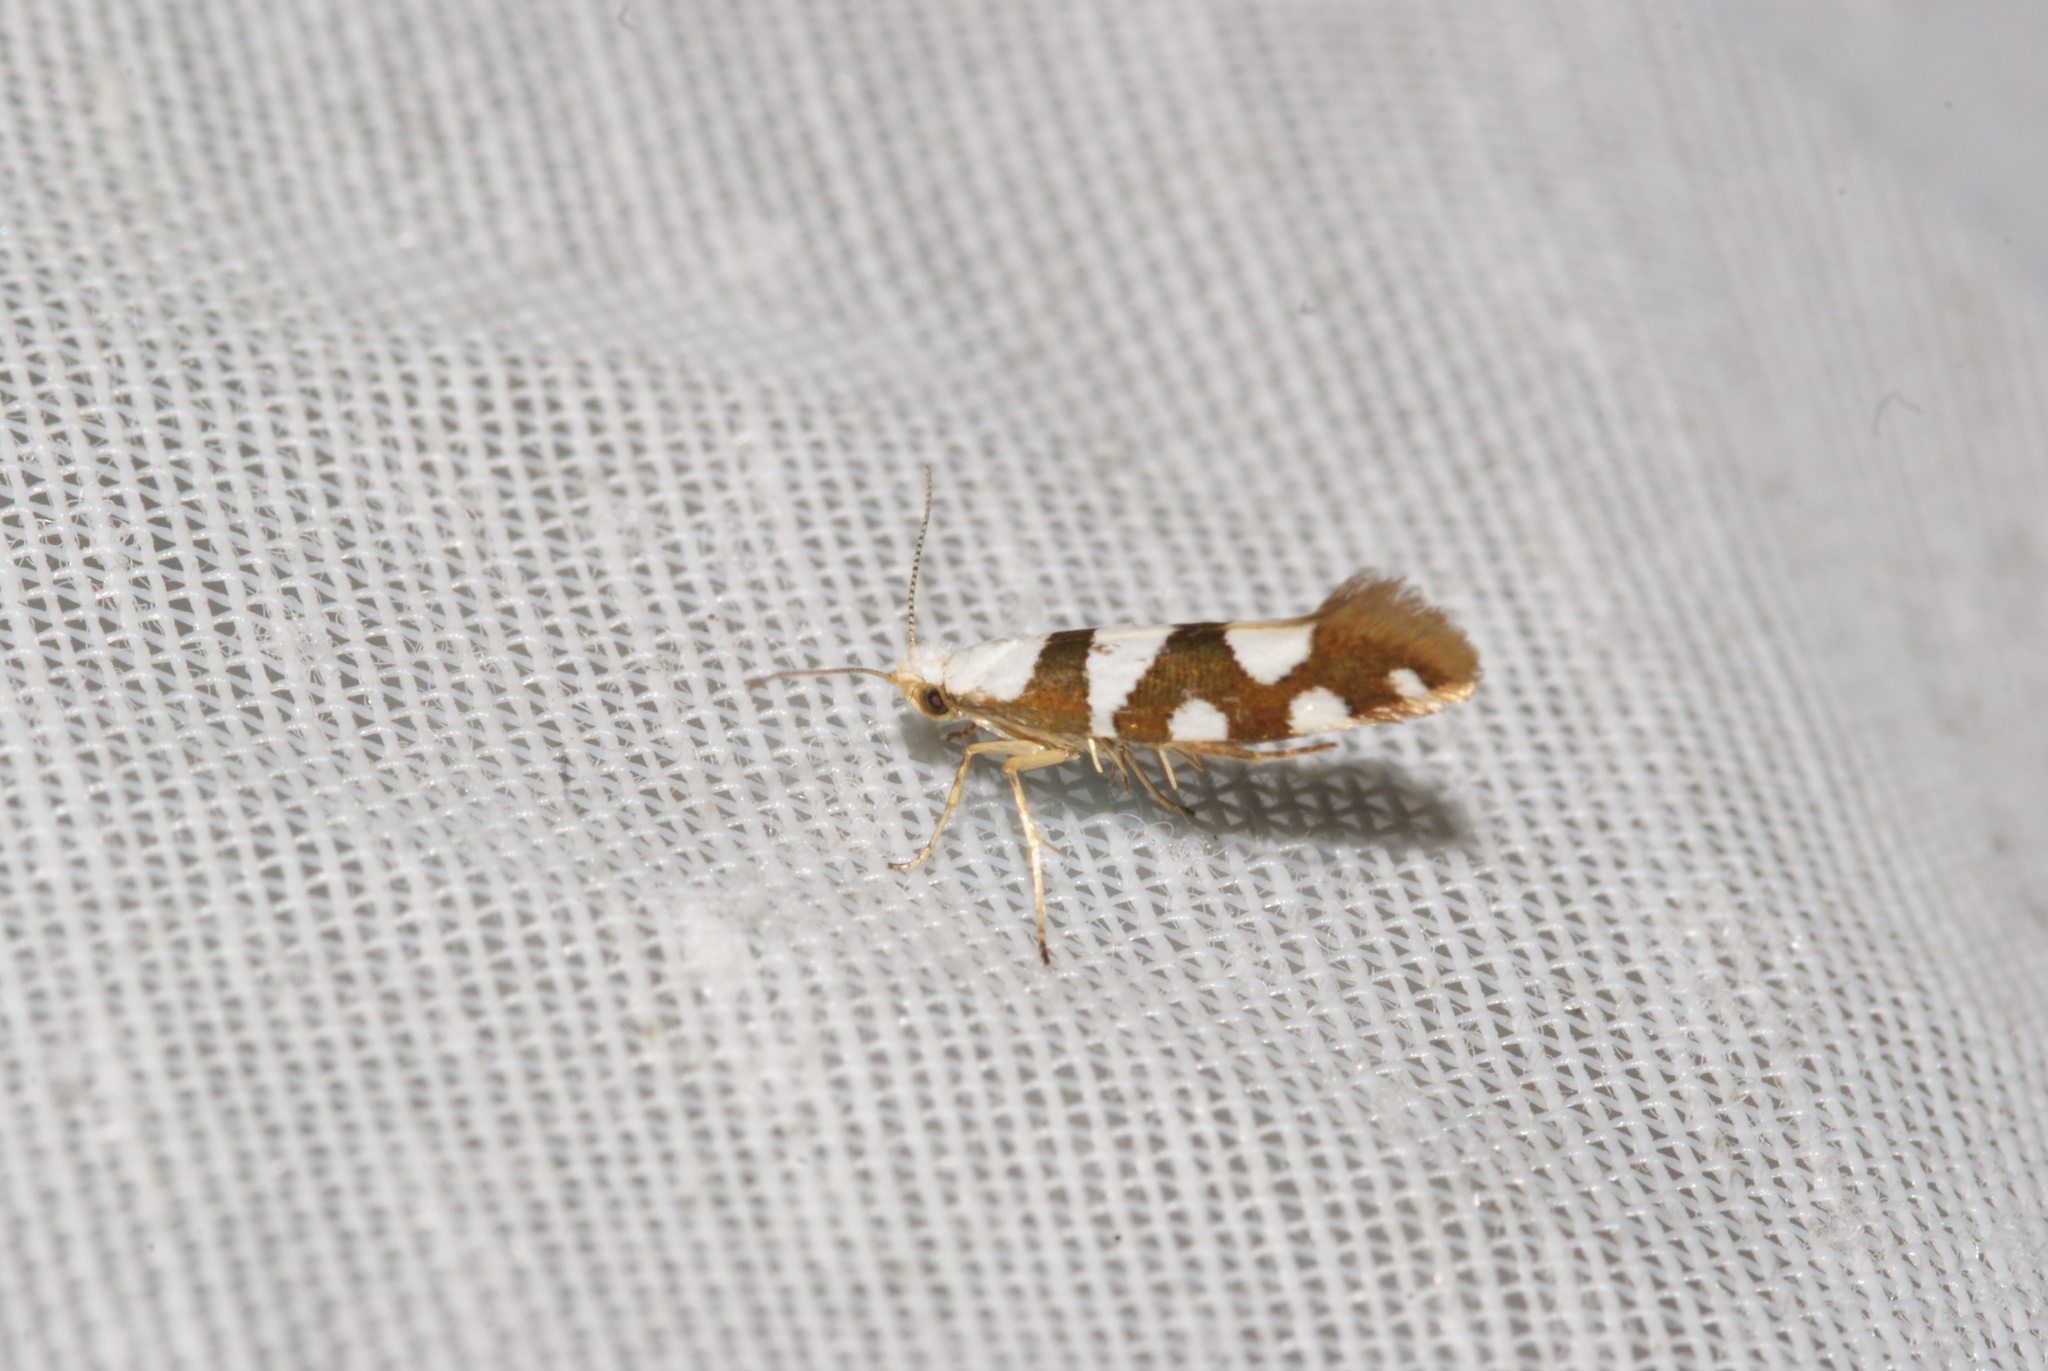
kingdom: Animalia
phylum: Arthropoda
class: Insecta
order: Lepidoptera
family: Argyresthiidae
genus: Argyresthia
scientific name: Argyresthia brockeella
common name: Gold-ribbon argent
